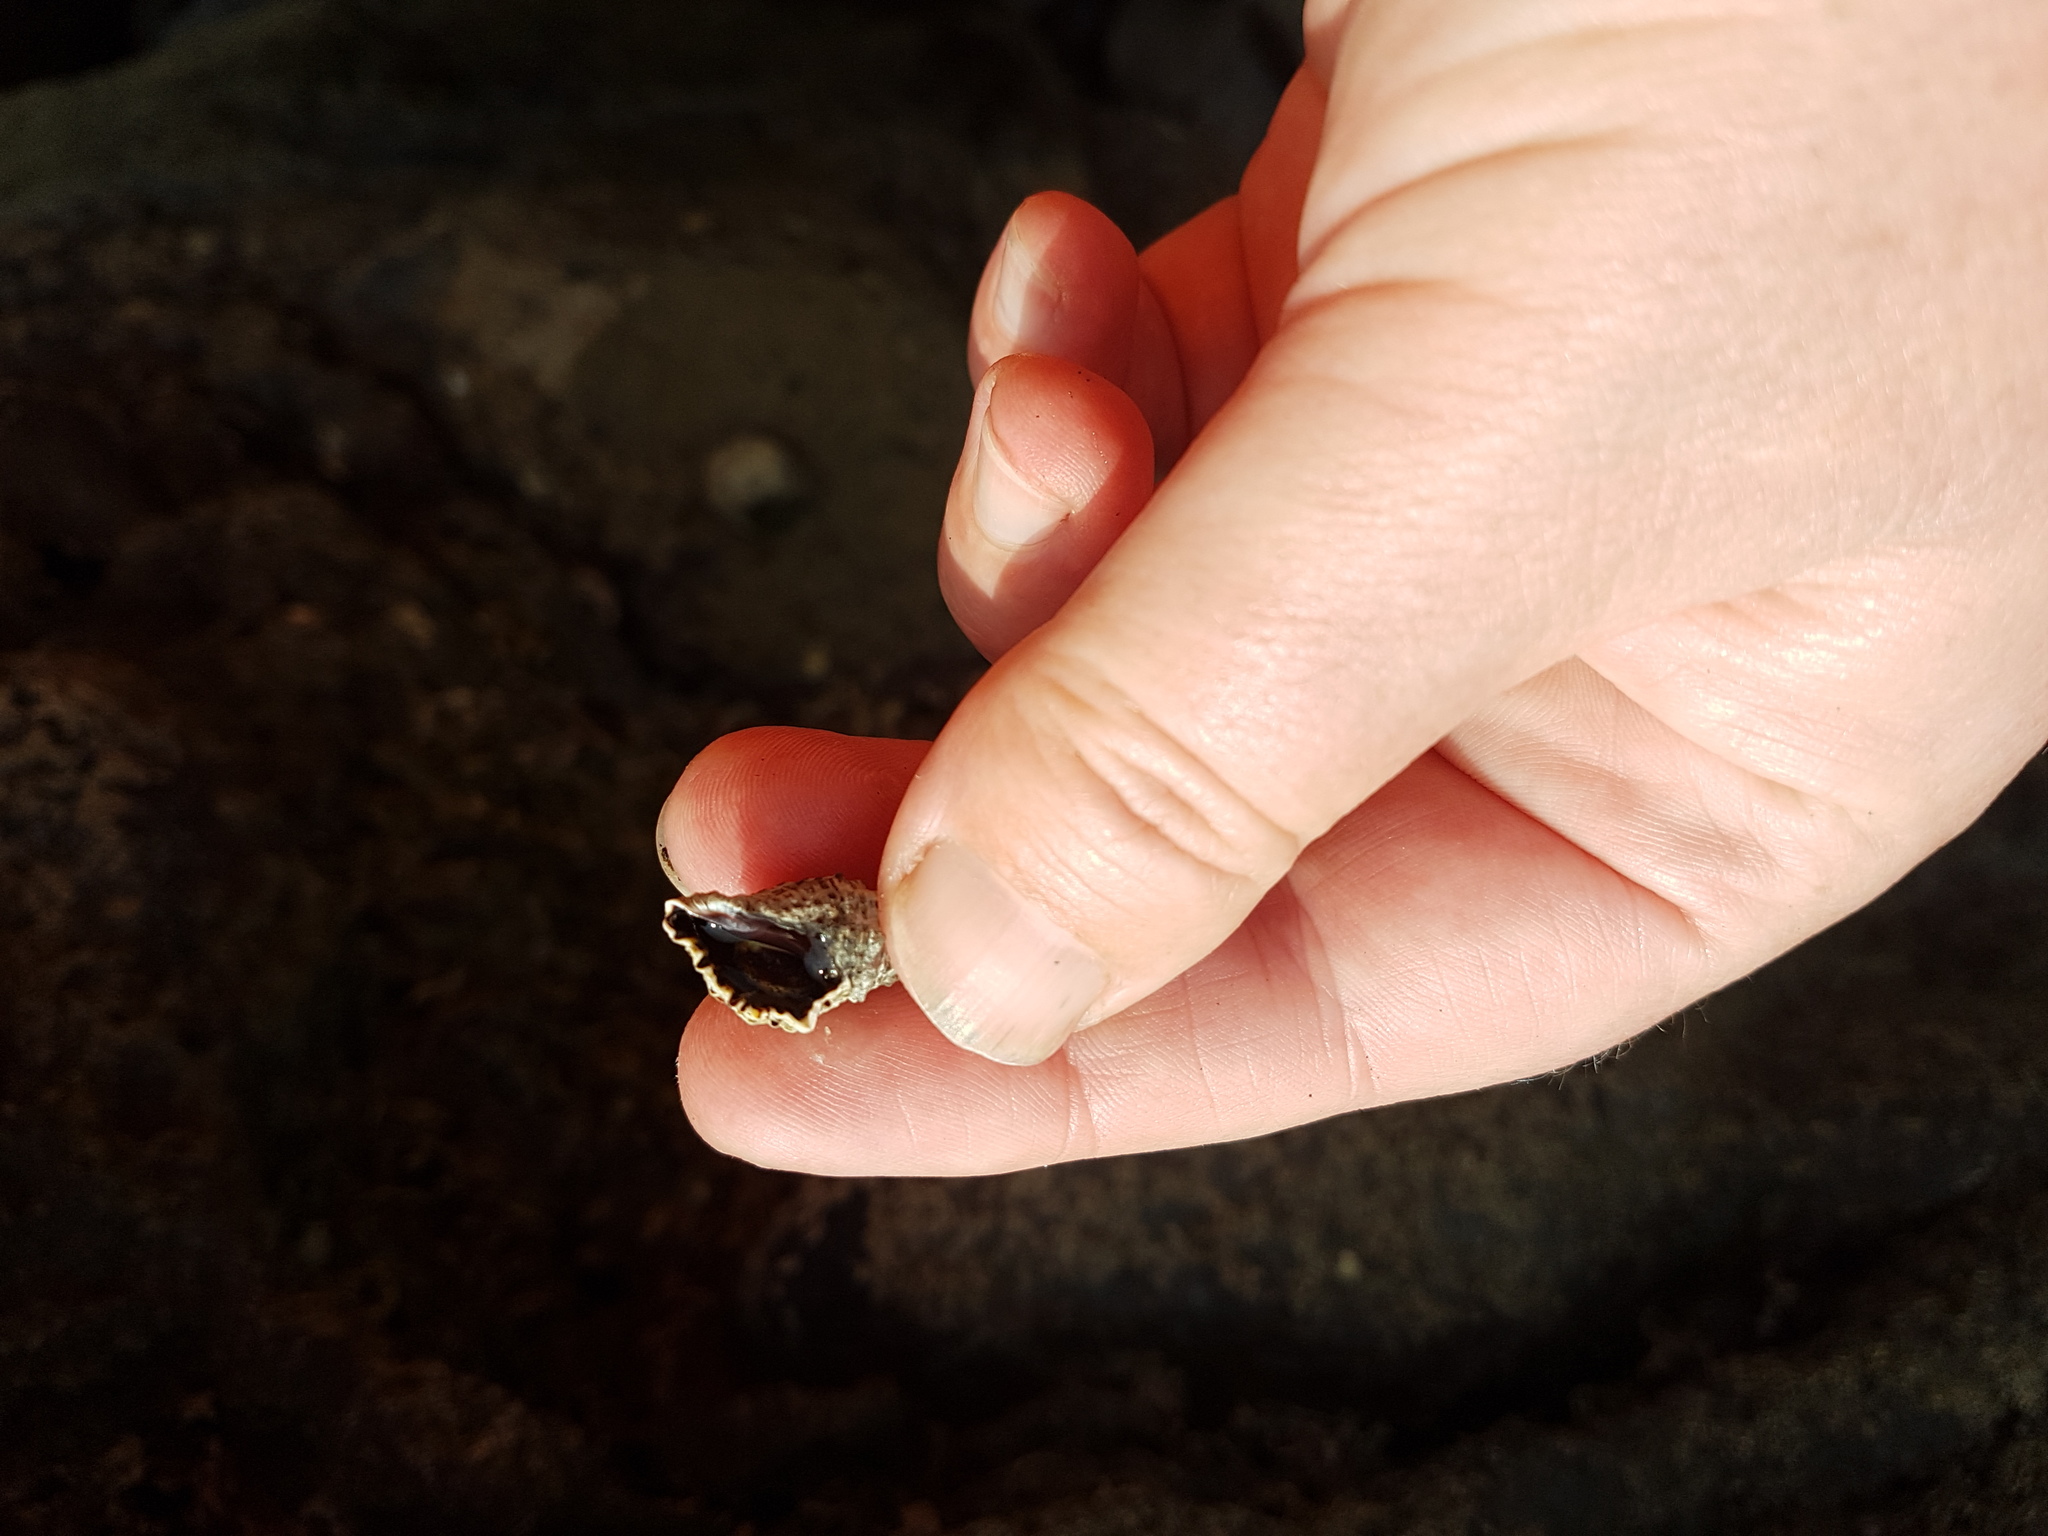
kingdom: Animalia
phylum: Mollusca
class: Gastropoda
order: Neogastropoda
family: Muricidae
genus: Haustrum
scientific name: Haustrum scobina
